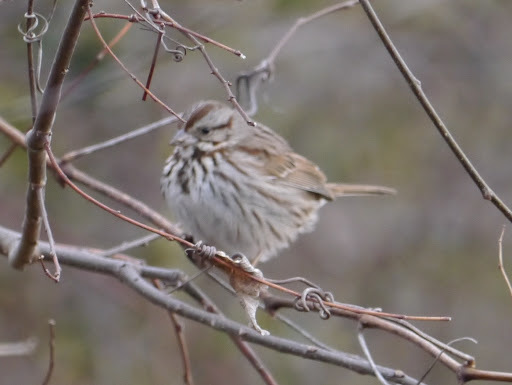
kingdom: Animalia
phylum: Chordata
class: Aves
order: Passeriformes
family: Passerellidae
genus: Melospiza
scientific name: Melospiza melodia
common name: Song sparrow
